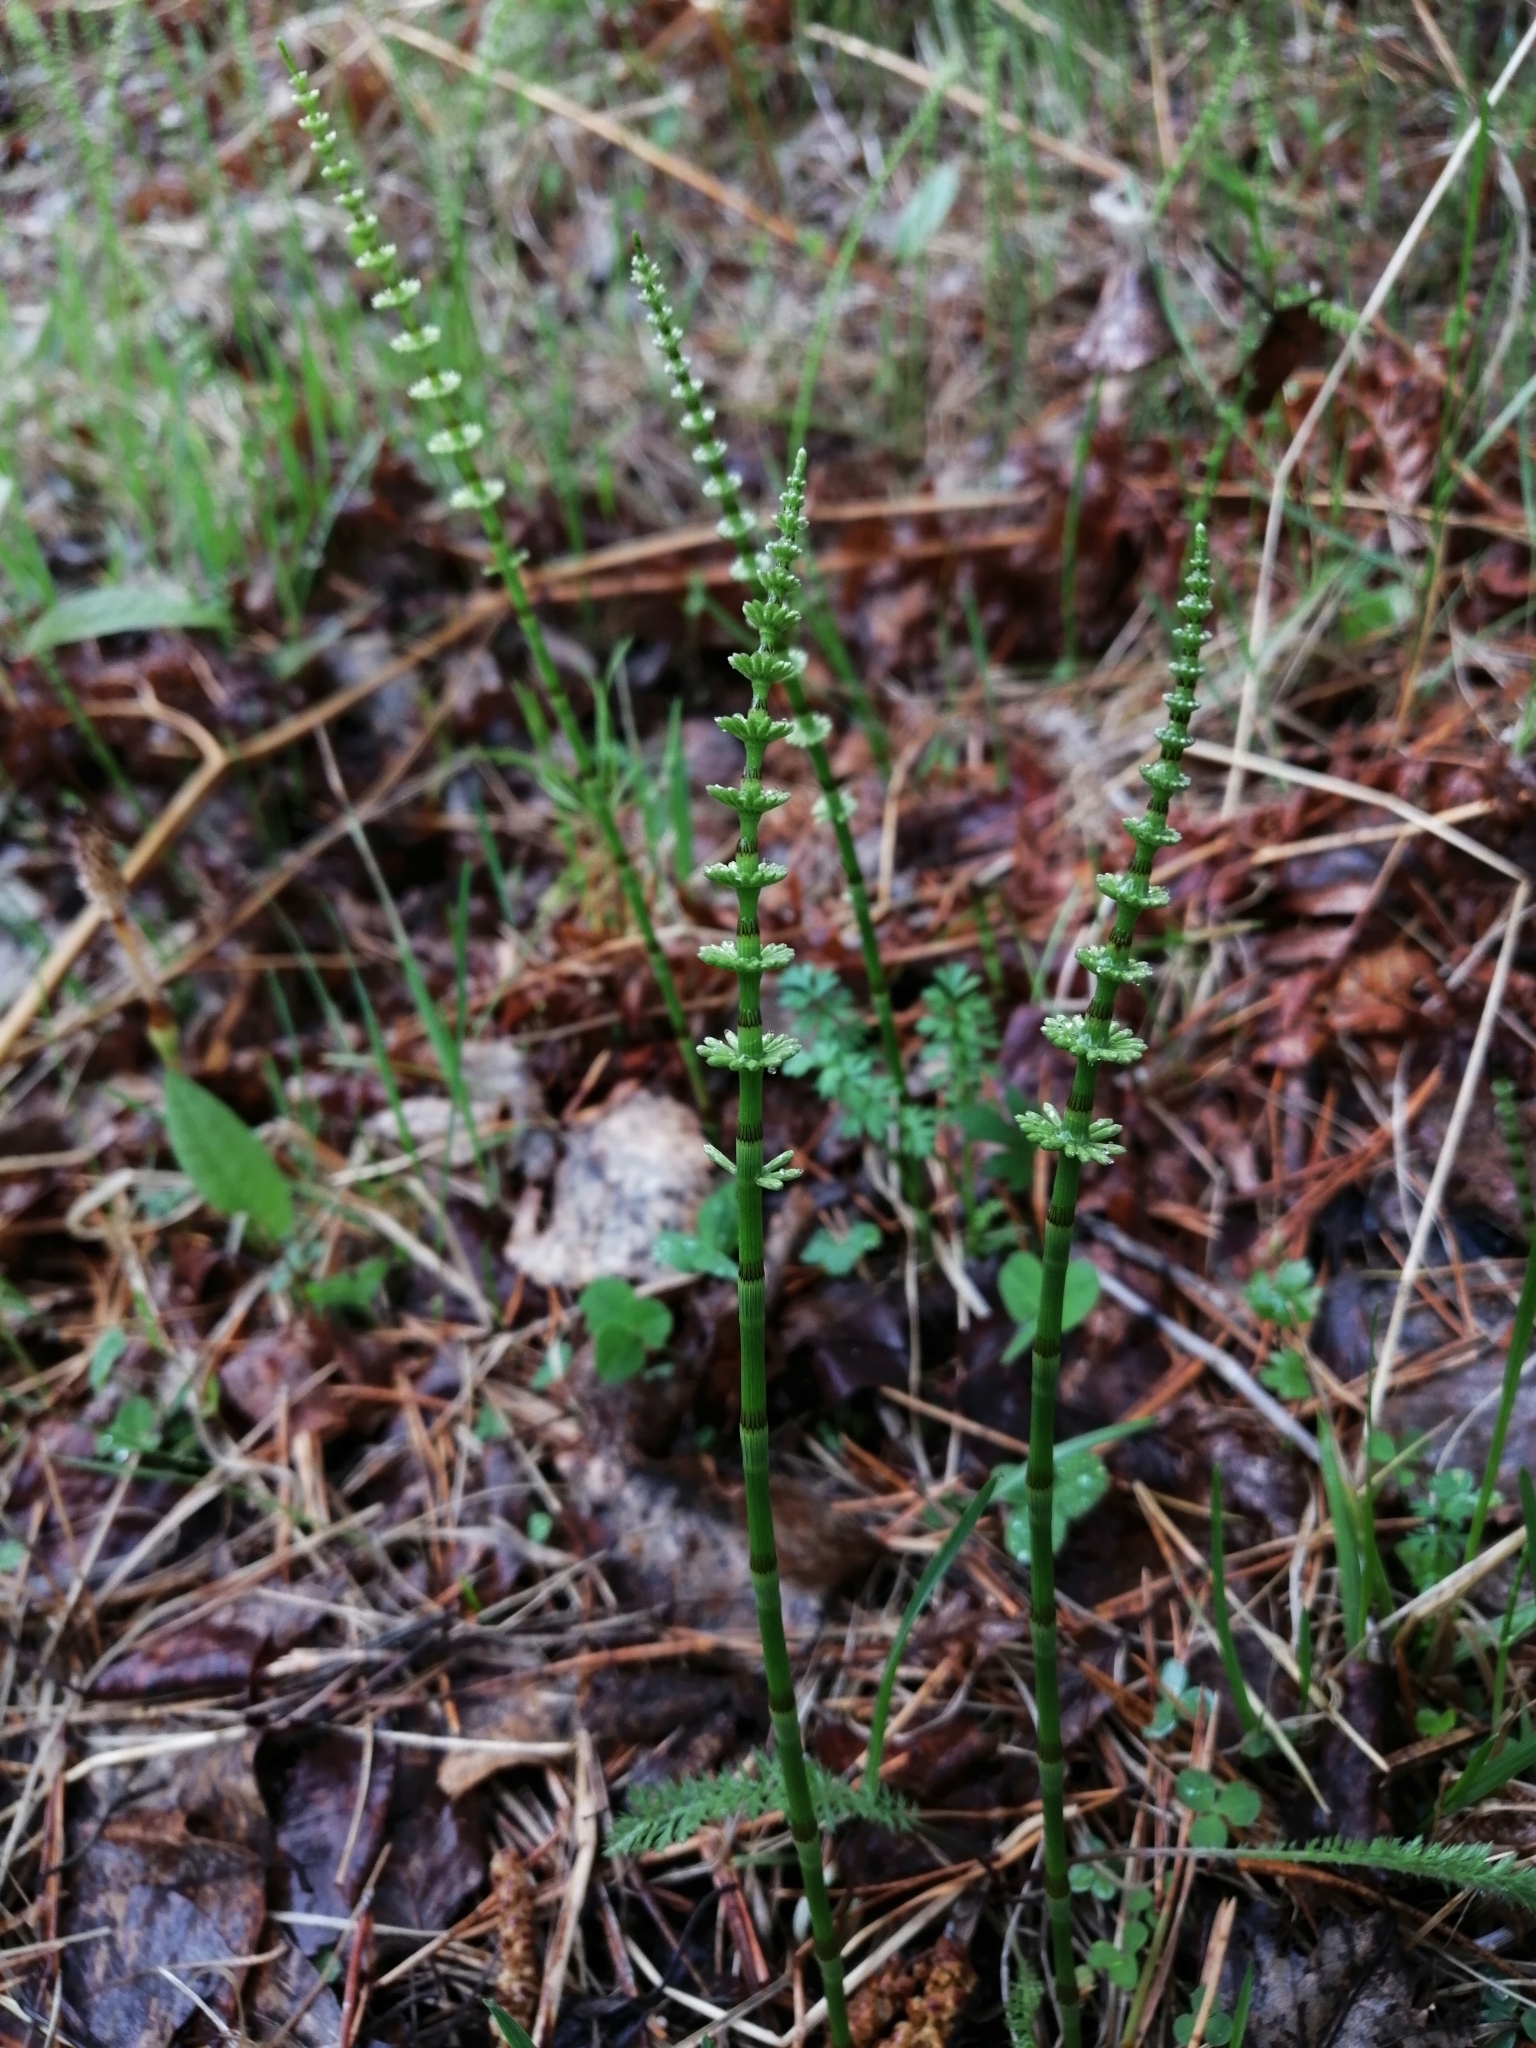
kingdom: Plantae
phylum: Tracheophyta
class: Polypodiopsida
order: Equisetales
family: Equisetaceae
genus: Equisetum
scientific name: Equisetum pratense
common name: Meadow horsetail
